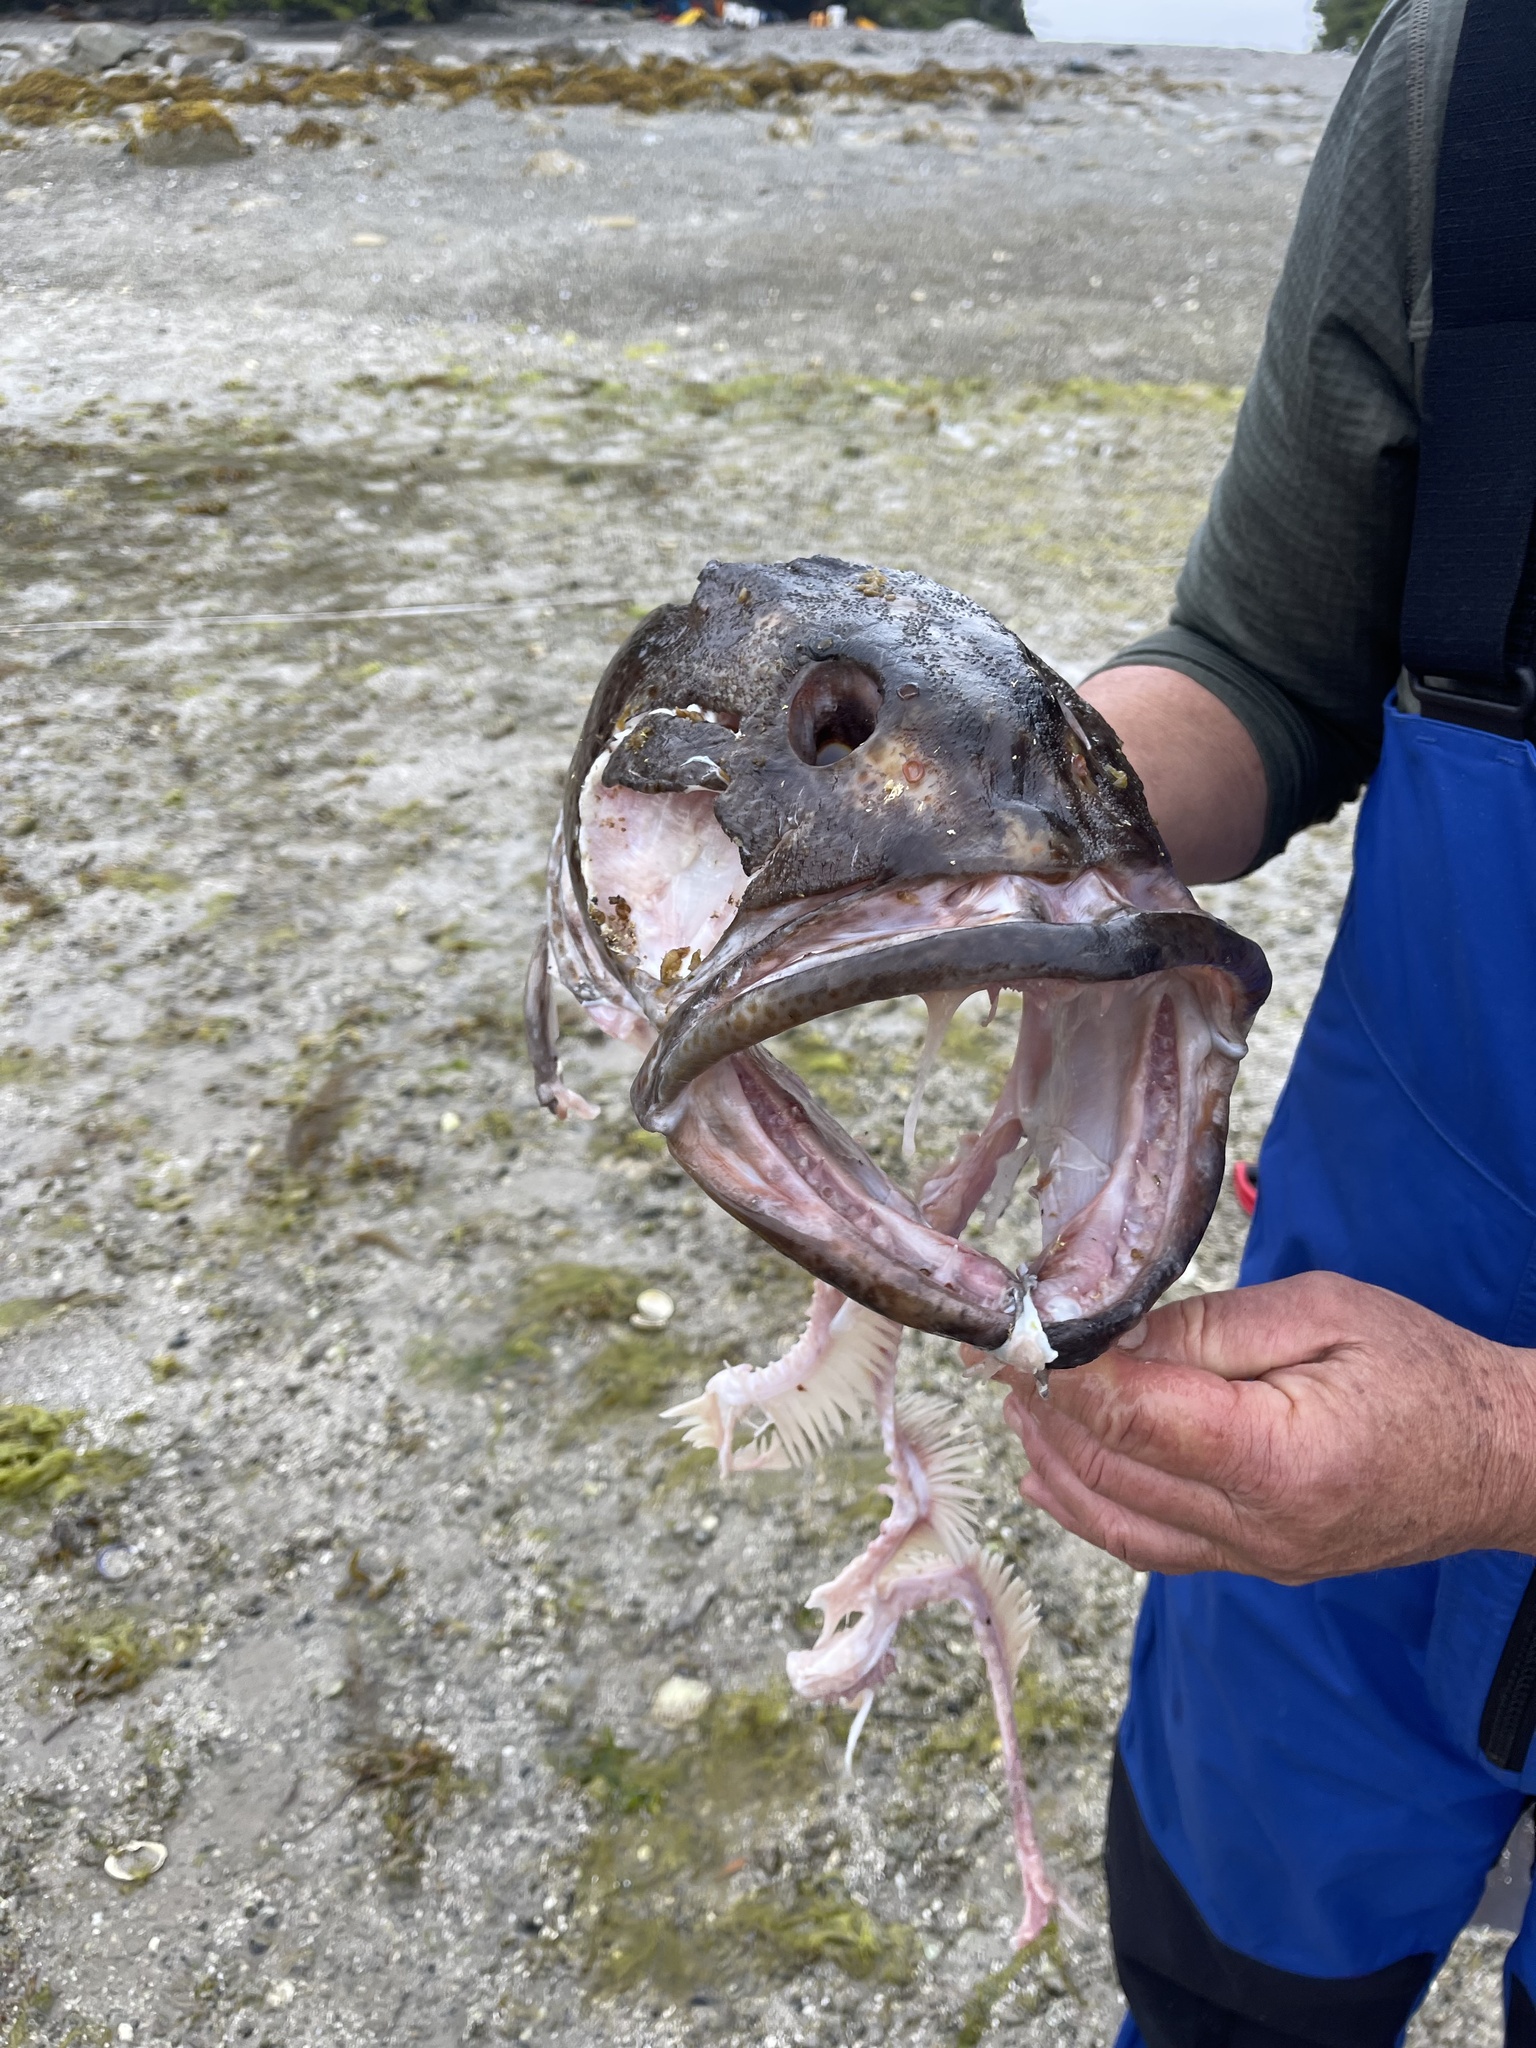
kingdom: Animalia
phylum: Chordata
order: Scorpaeniformes
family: Hexagrammidae
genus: Ophiodon
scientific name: Ophiodon elongatus
